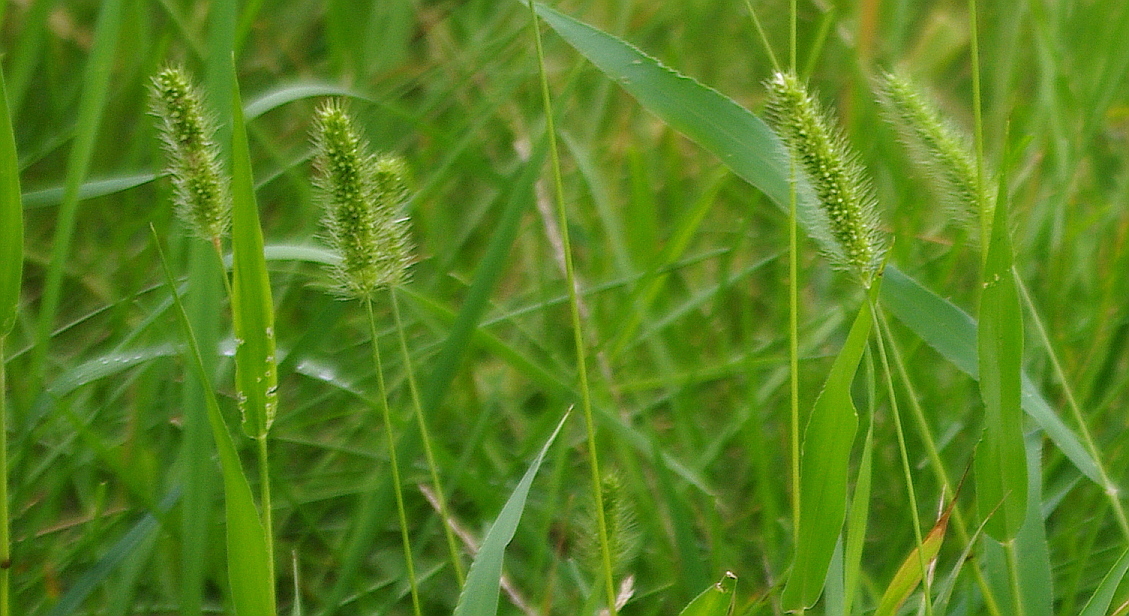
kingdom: Plantae
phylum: Tracheophyta
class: Liliopsida
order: Poales
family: Poaceae
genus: Setaria
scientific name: Setaria viridis
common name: Green bristlegrass
